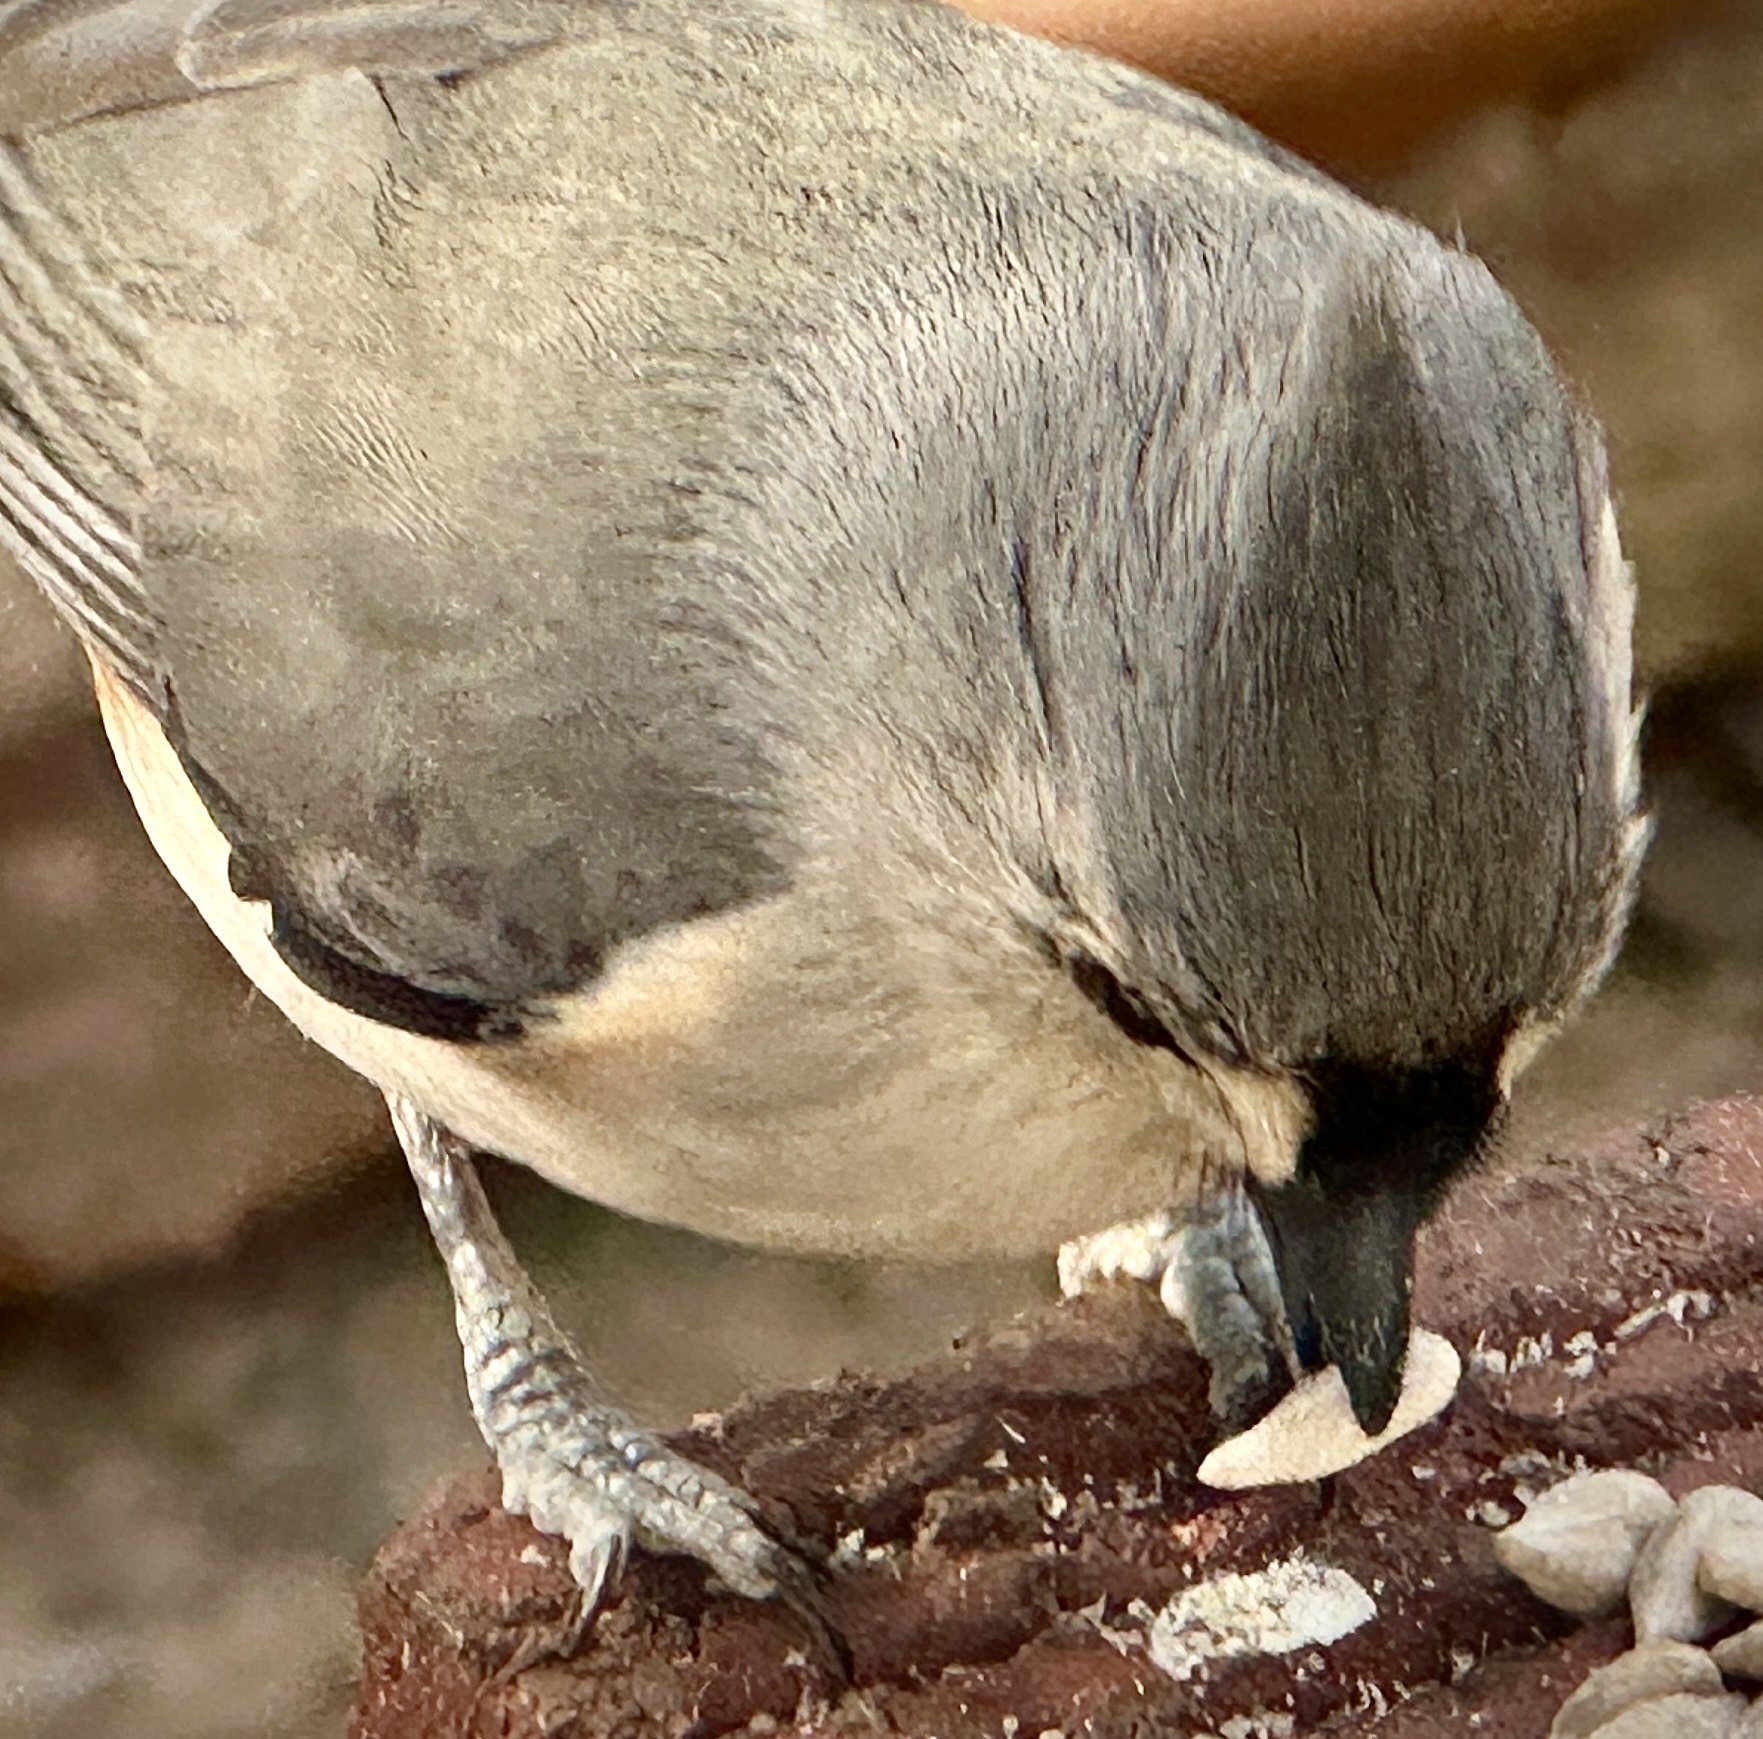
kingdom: Animalia
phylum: Chordata
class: Aves
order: Passeriformes
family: Paridae
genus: Baeolophus
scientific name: Baeolophus bicolor
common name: Tufted titmouse
